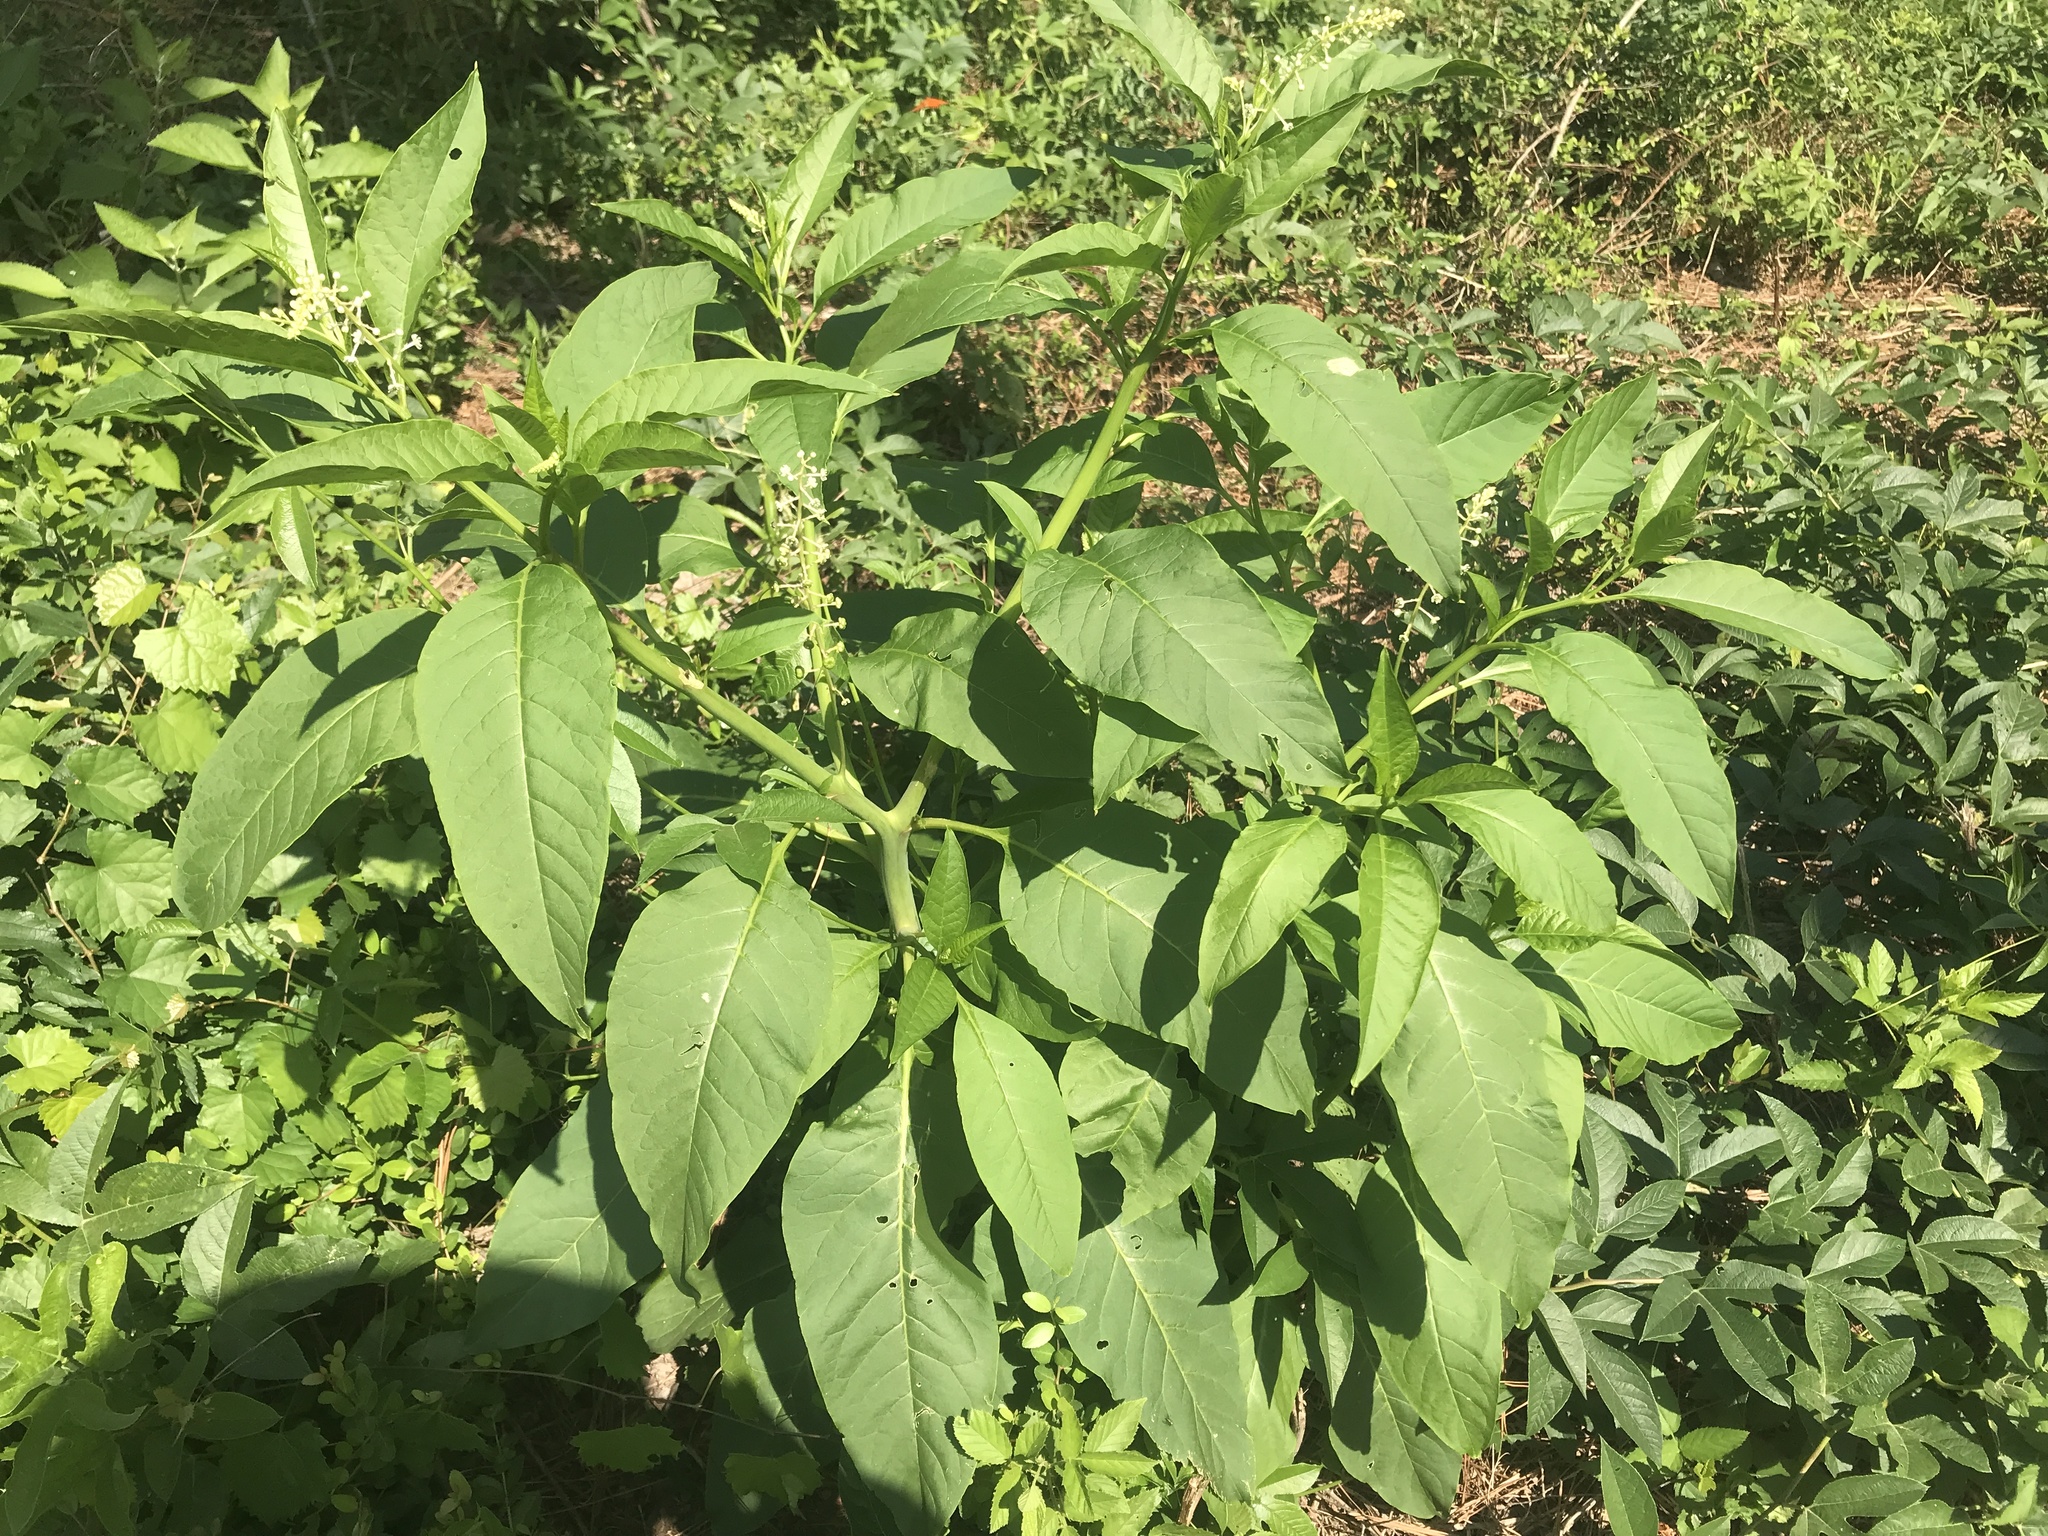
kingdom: Plantae
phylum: Tracheophyta
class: Magnoliopsida
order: Caryophyllales
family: Phytolaccaceae
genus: Phytolacca
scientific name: Phytolacca americana
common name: American pokeweed
